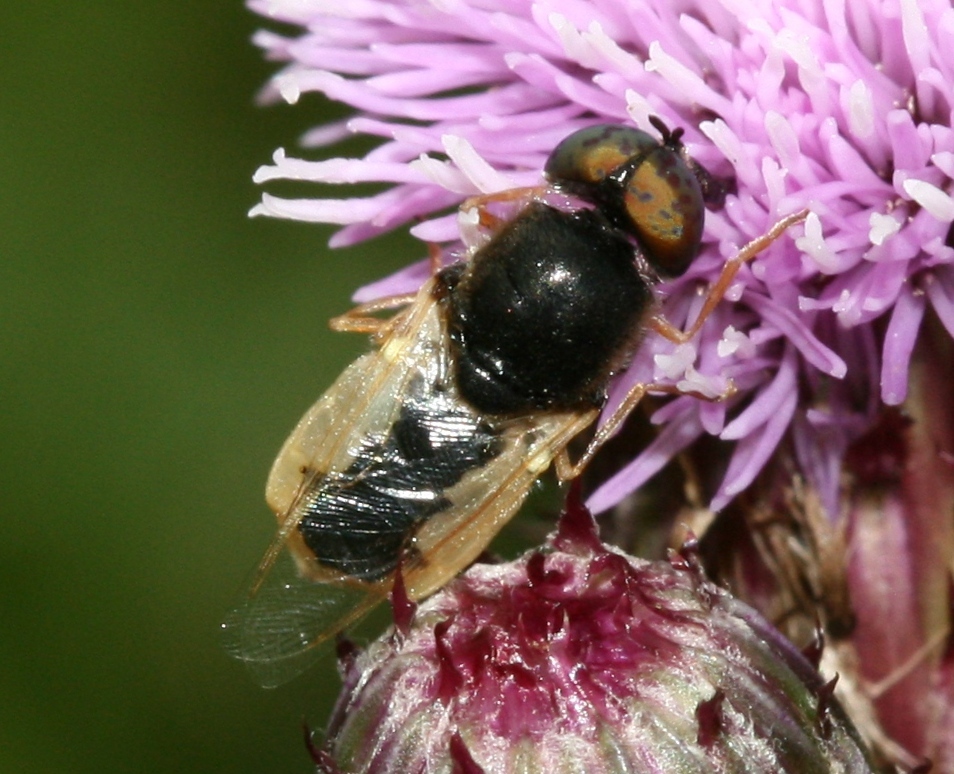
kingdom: Animalia
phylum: Arthropoda
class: Insecta
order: Diptera
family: Stratiomyidae
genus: Oplodontha
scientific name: Oplodontha viridula
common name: Common green colonel
